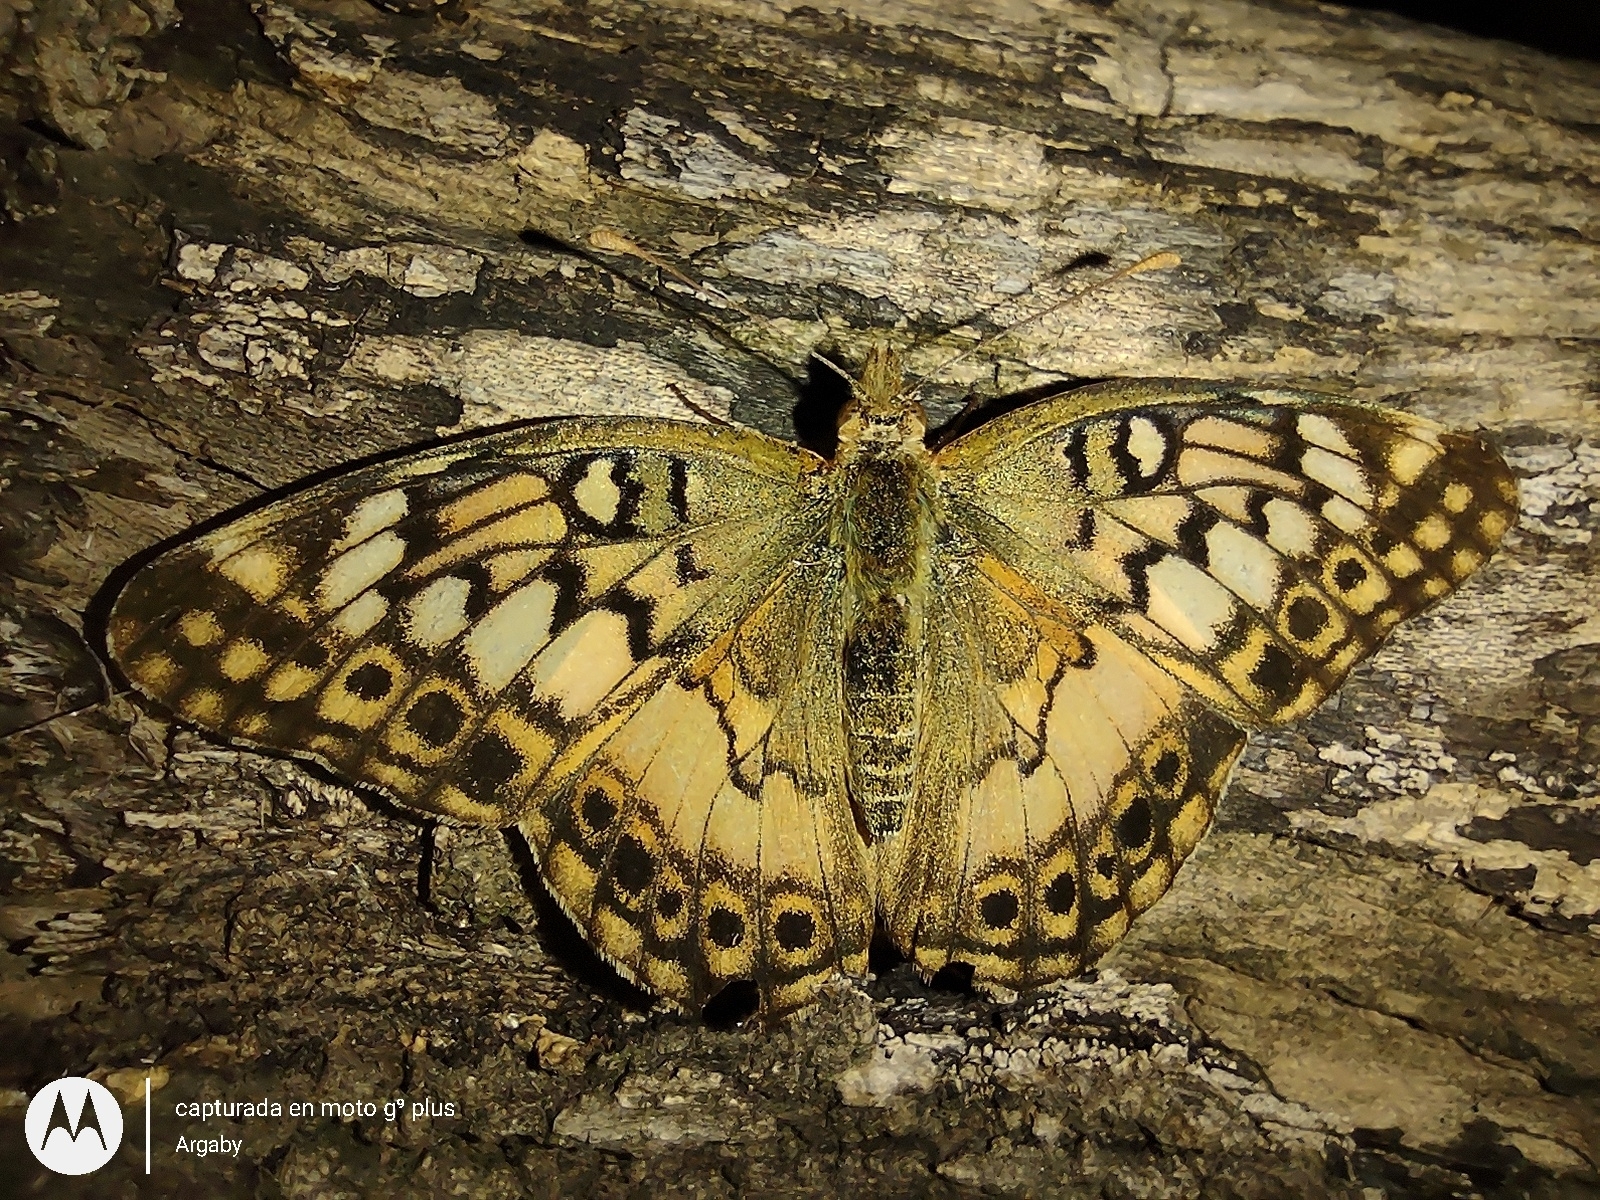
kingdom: Animalia
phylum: Arthropoda
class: Insecta
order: Lepidoptera
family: Nymphalidae
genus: Euptoieta
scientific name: Euptoieta hortensia
